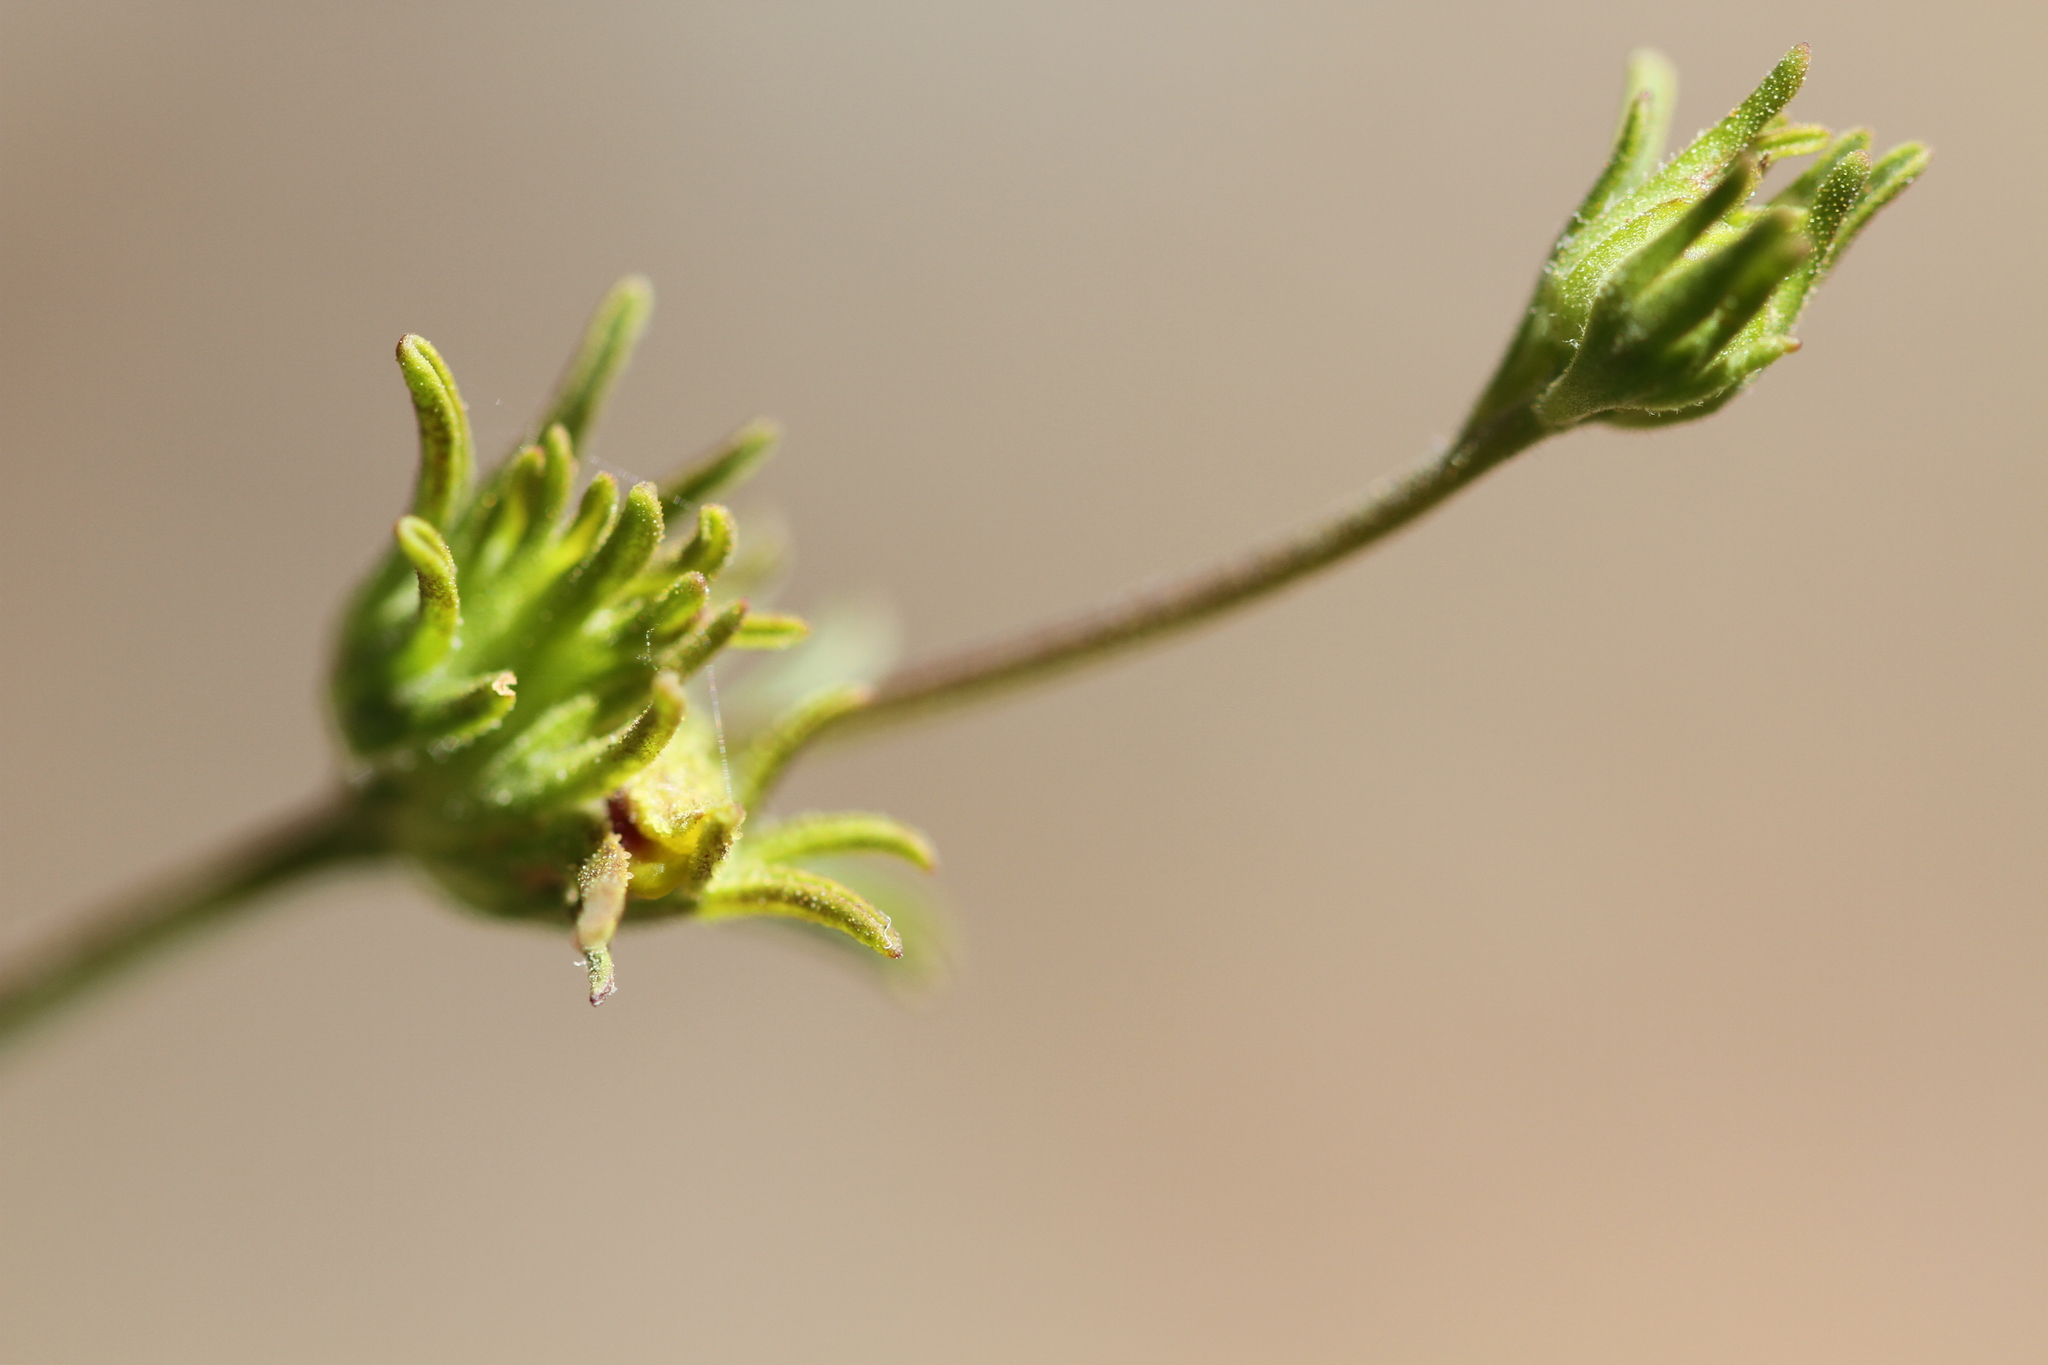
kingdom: Plantae
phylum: Tracheophyta
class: Magnoliopsida
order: Lamiales
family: Orobanchaceae
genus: Cordylanthus
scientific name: Cordylanthus pringlei
